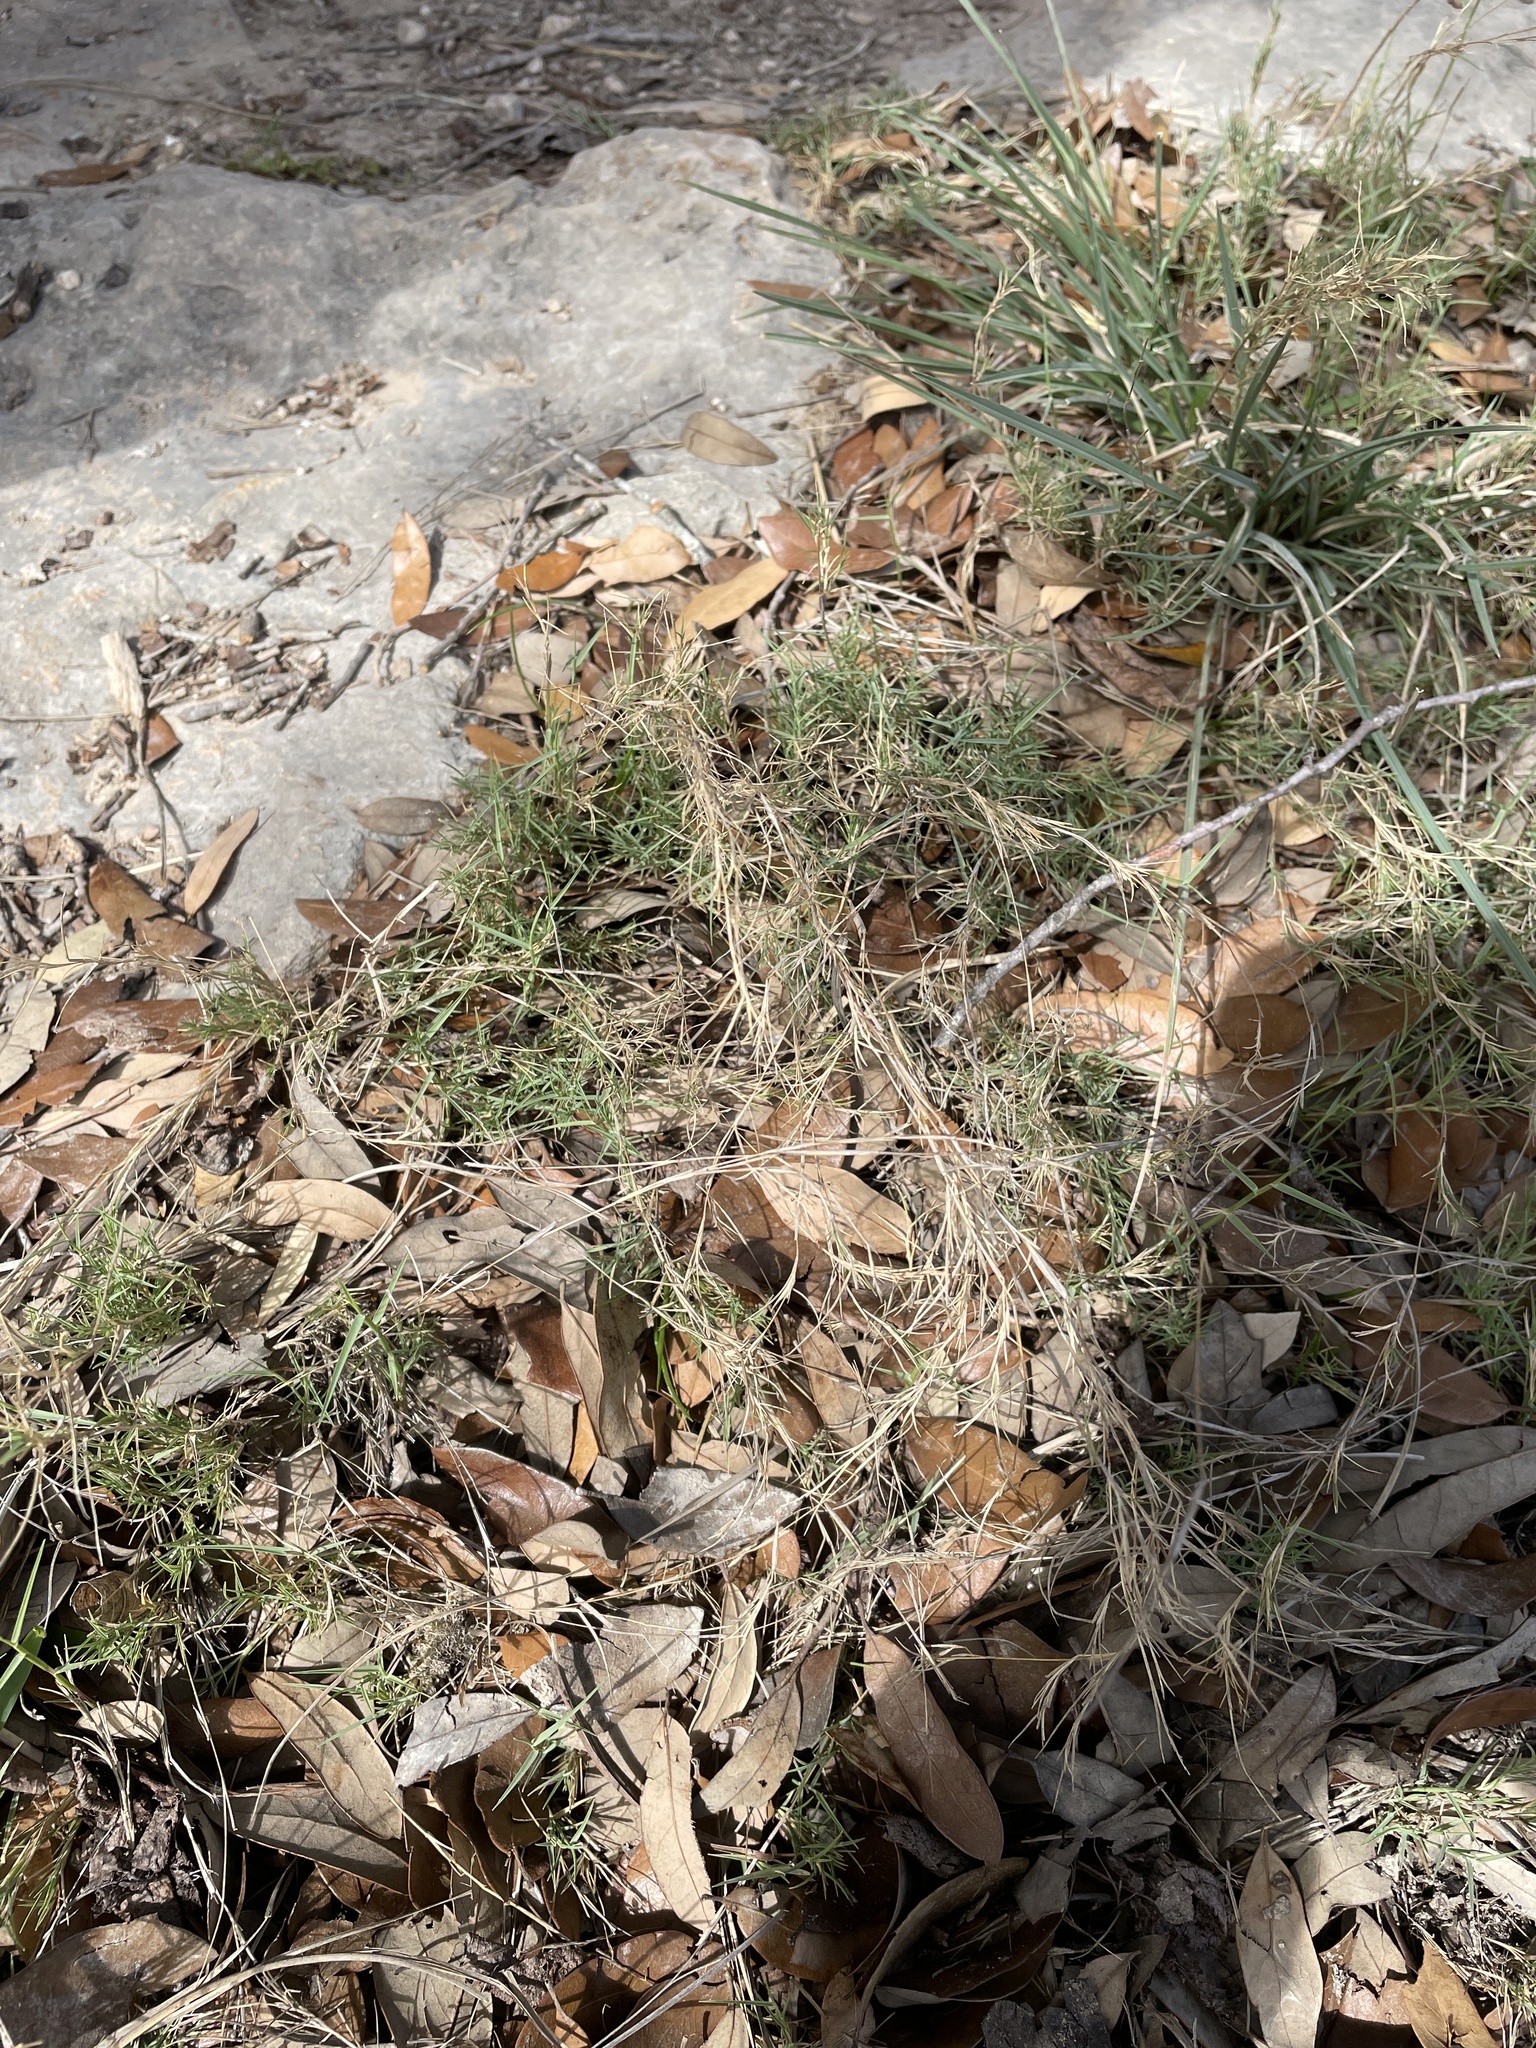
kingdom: Plantae
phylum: Tracheophyta
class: Liliopsida
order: Poales
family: Poaceae
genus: Muhlenbergia
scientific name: Muhlenbergia utilis
